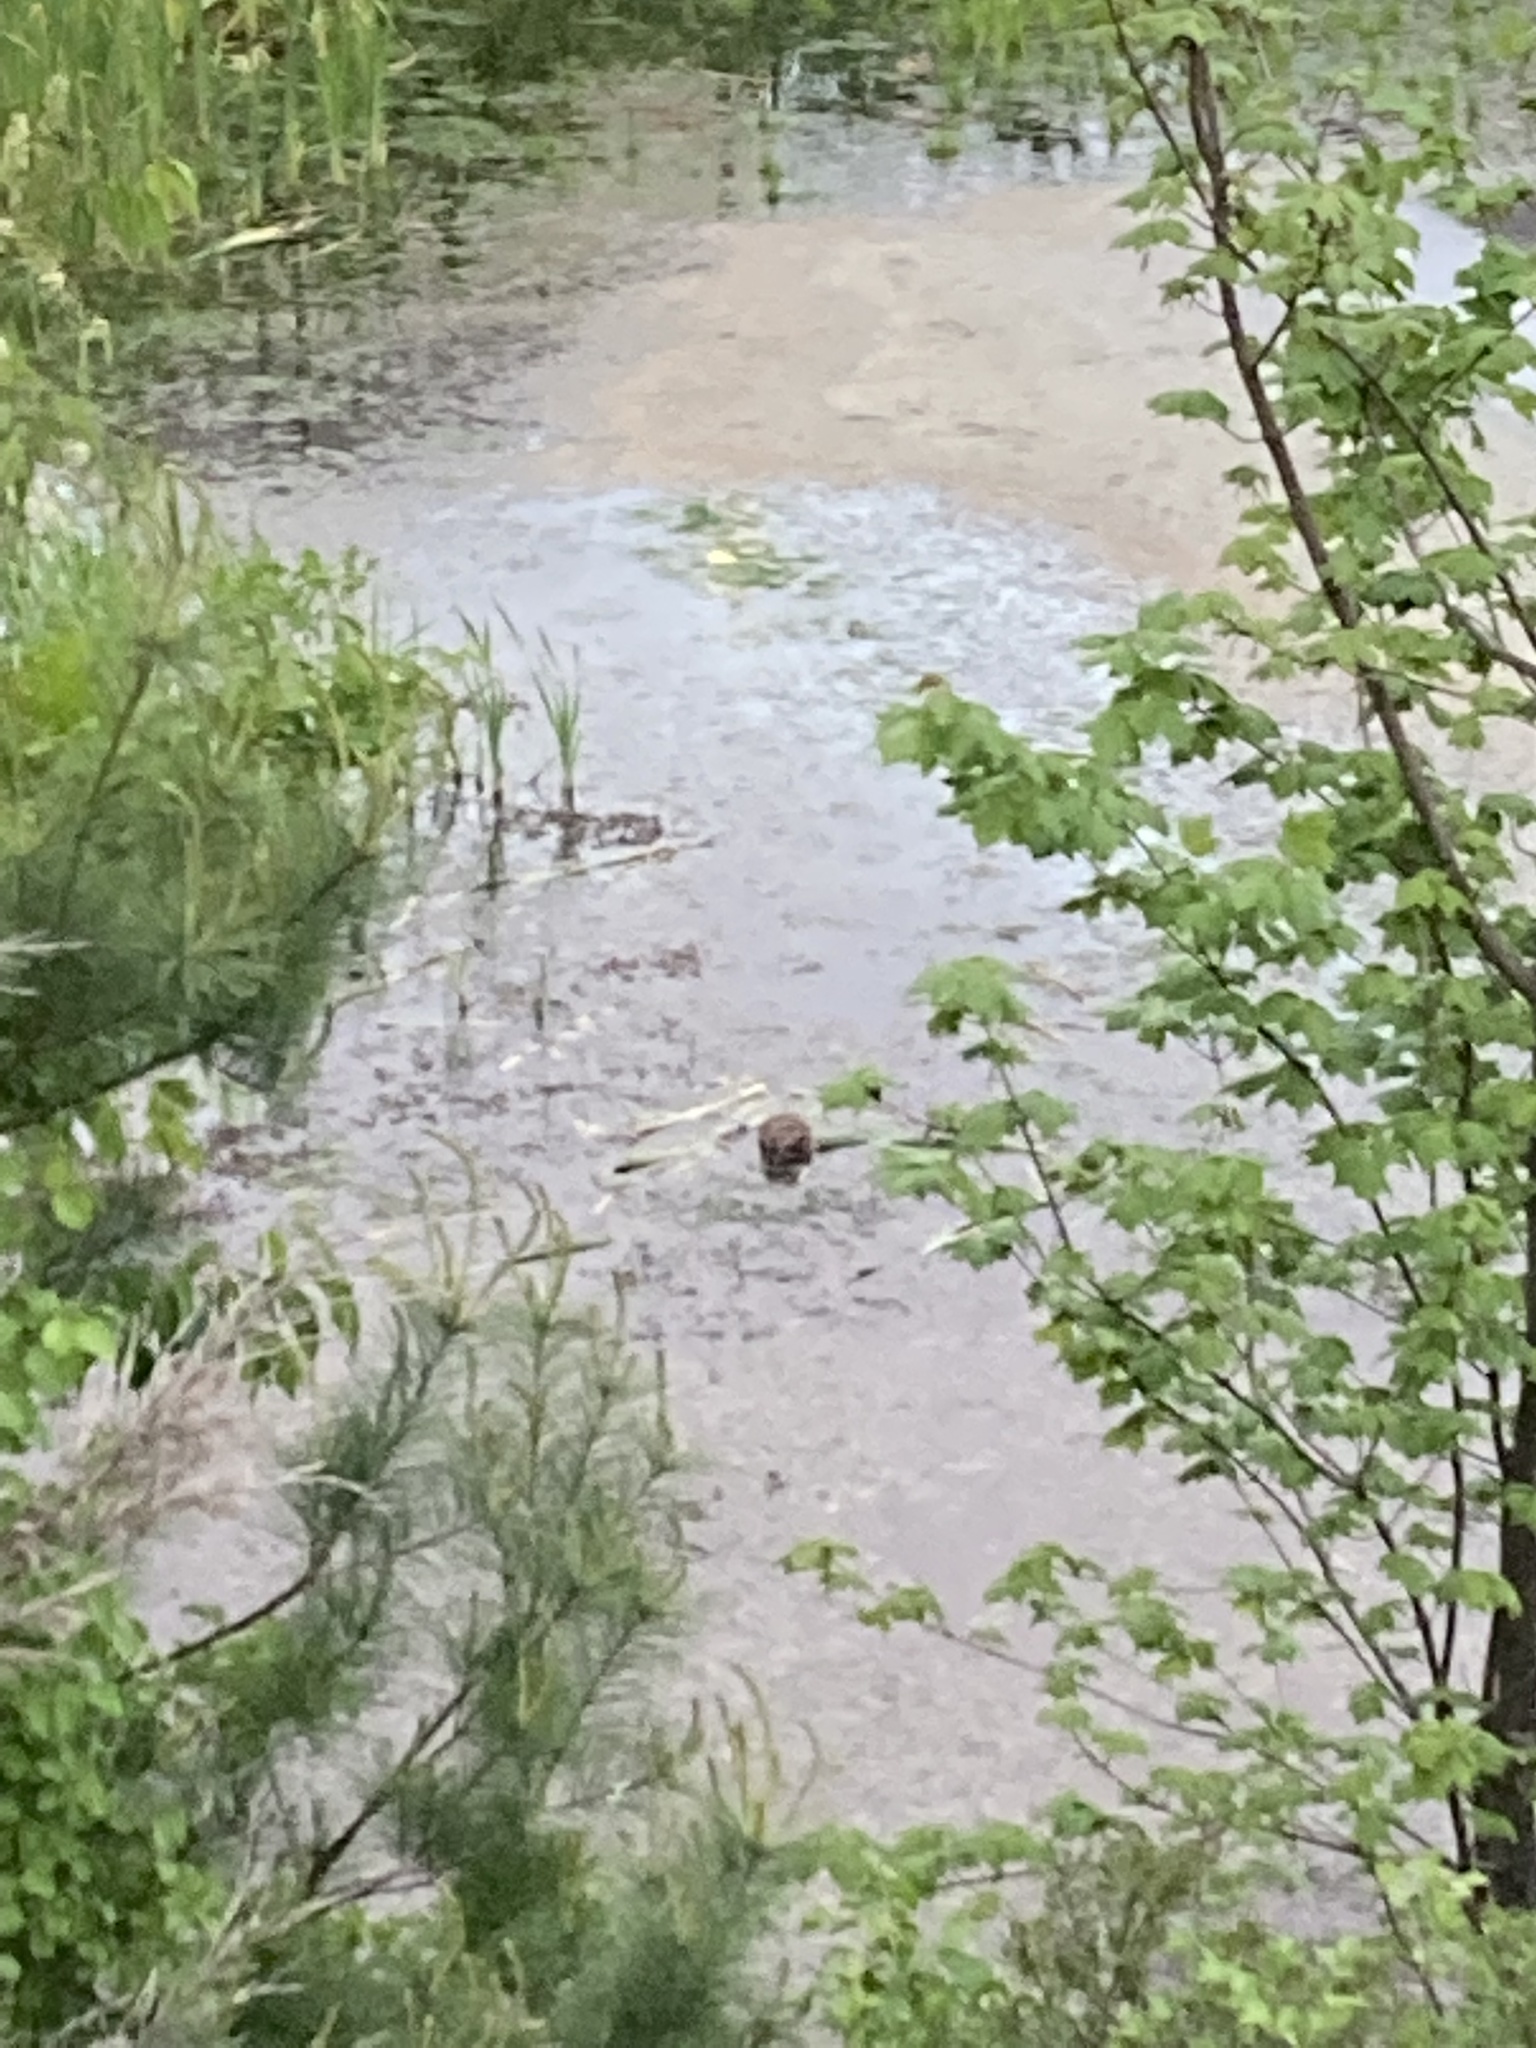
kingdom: Animalia
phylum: Chordata
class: Mammalia
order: Rodentia
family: Cricetidae
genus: Ondatra
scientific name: Ondatra zibethicus
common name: Muskrat
